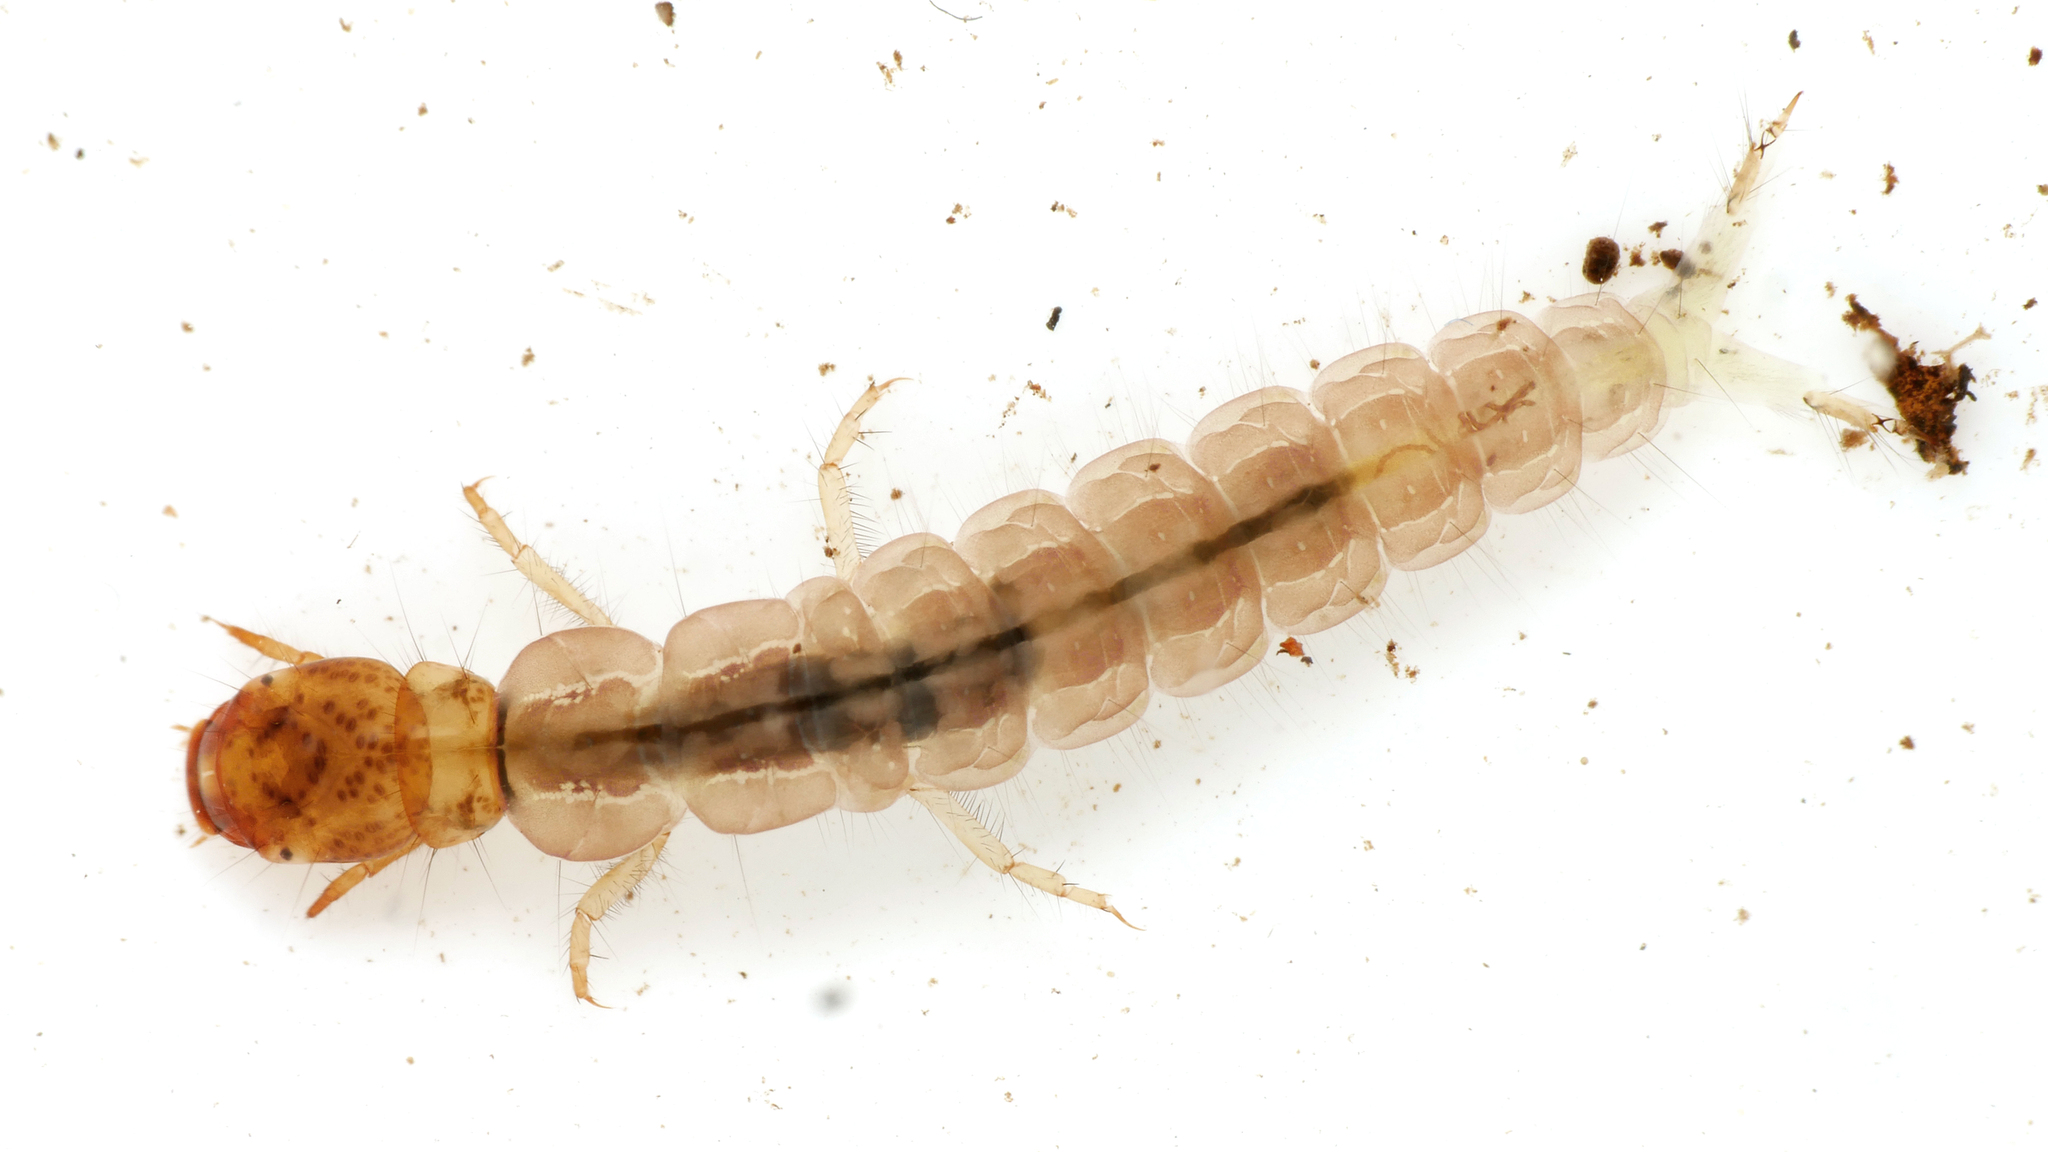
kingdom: Animalia
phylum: Arthropoda
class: Insecta
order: Trichoptera
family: Polycentropodidae
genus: Plectrocnemia
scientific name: Plectrocnemia brevis
